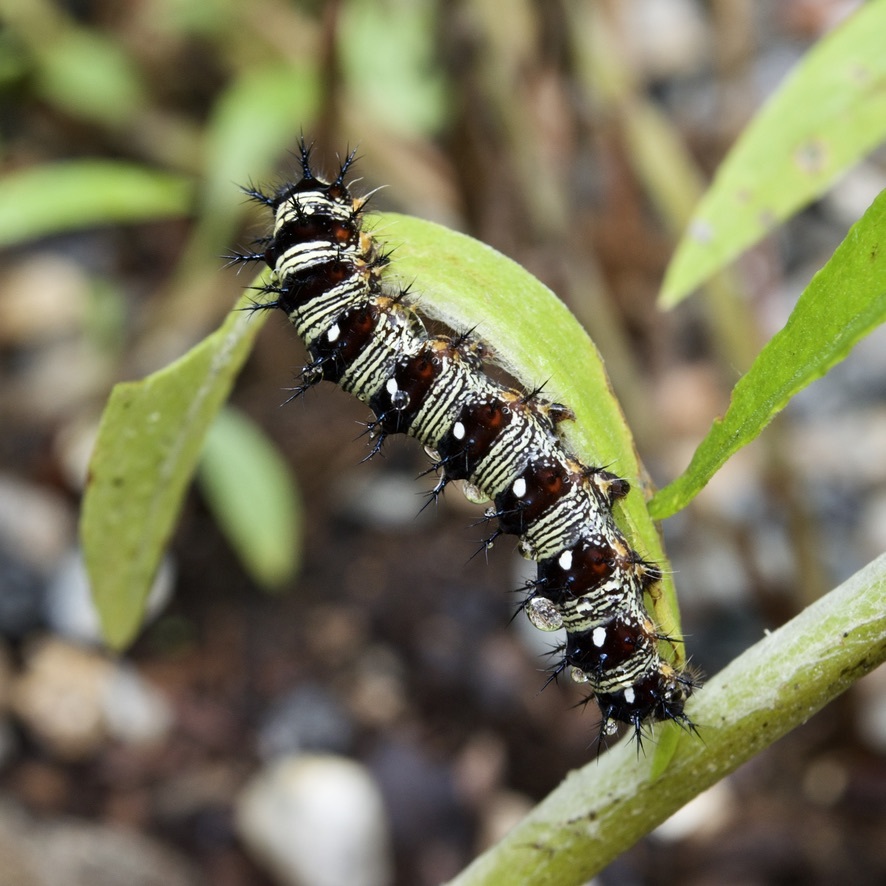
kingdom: Animalia
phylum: Arthropoda
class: Insecta
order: Lepidoptera
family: Nymphalidae
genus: Vanessa
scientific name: Vanessa virginiensis
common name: American lady
